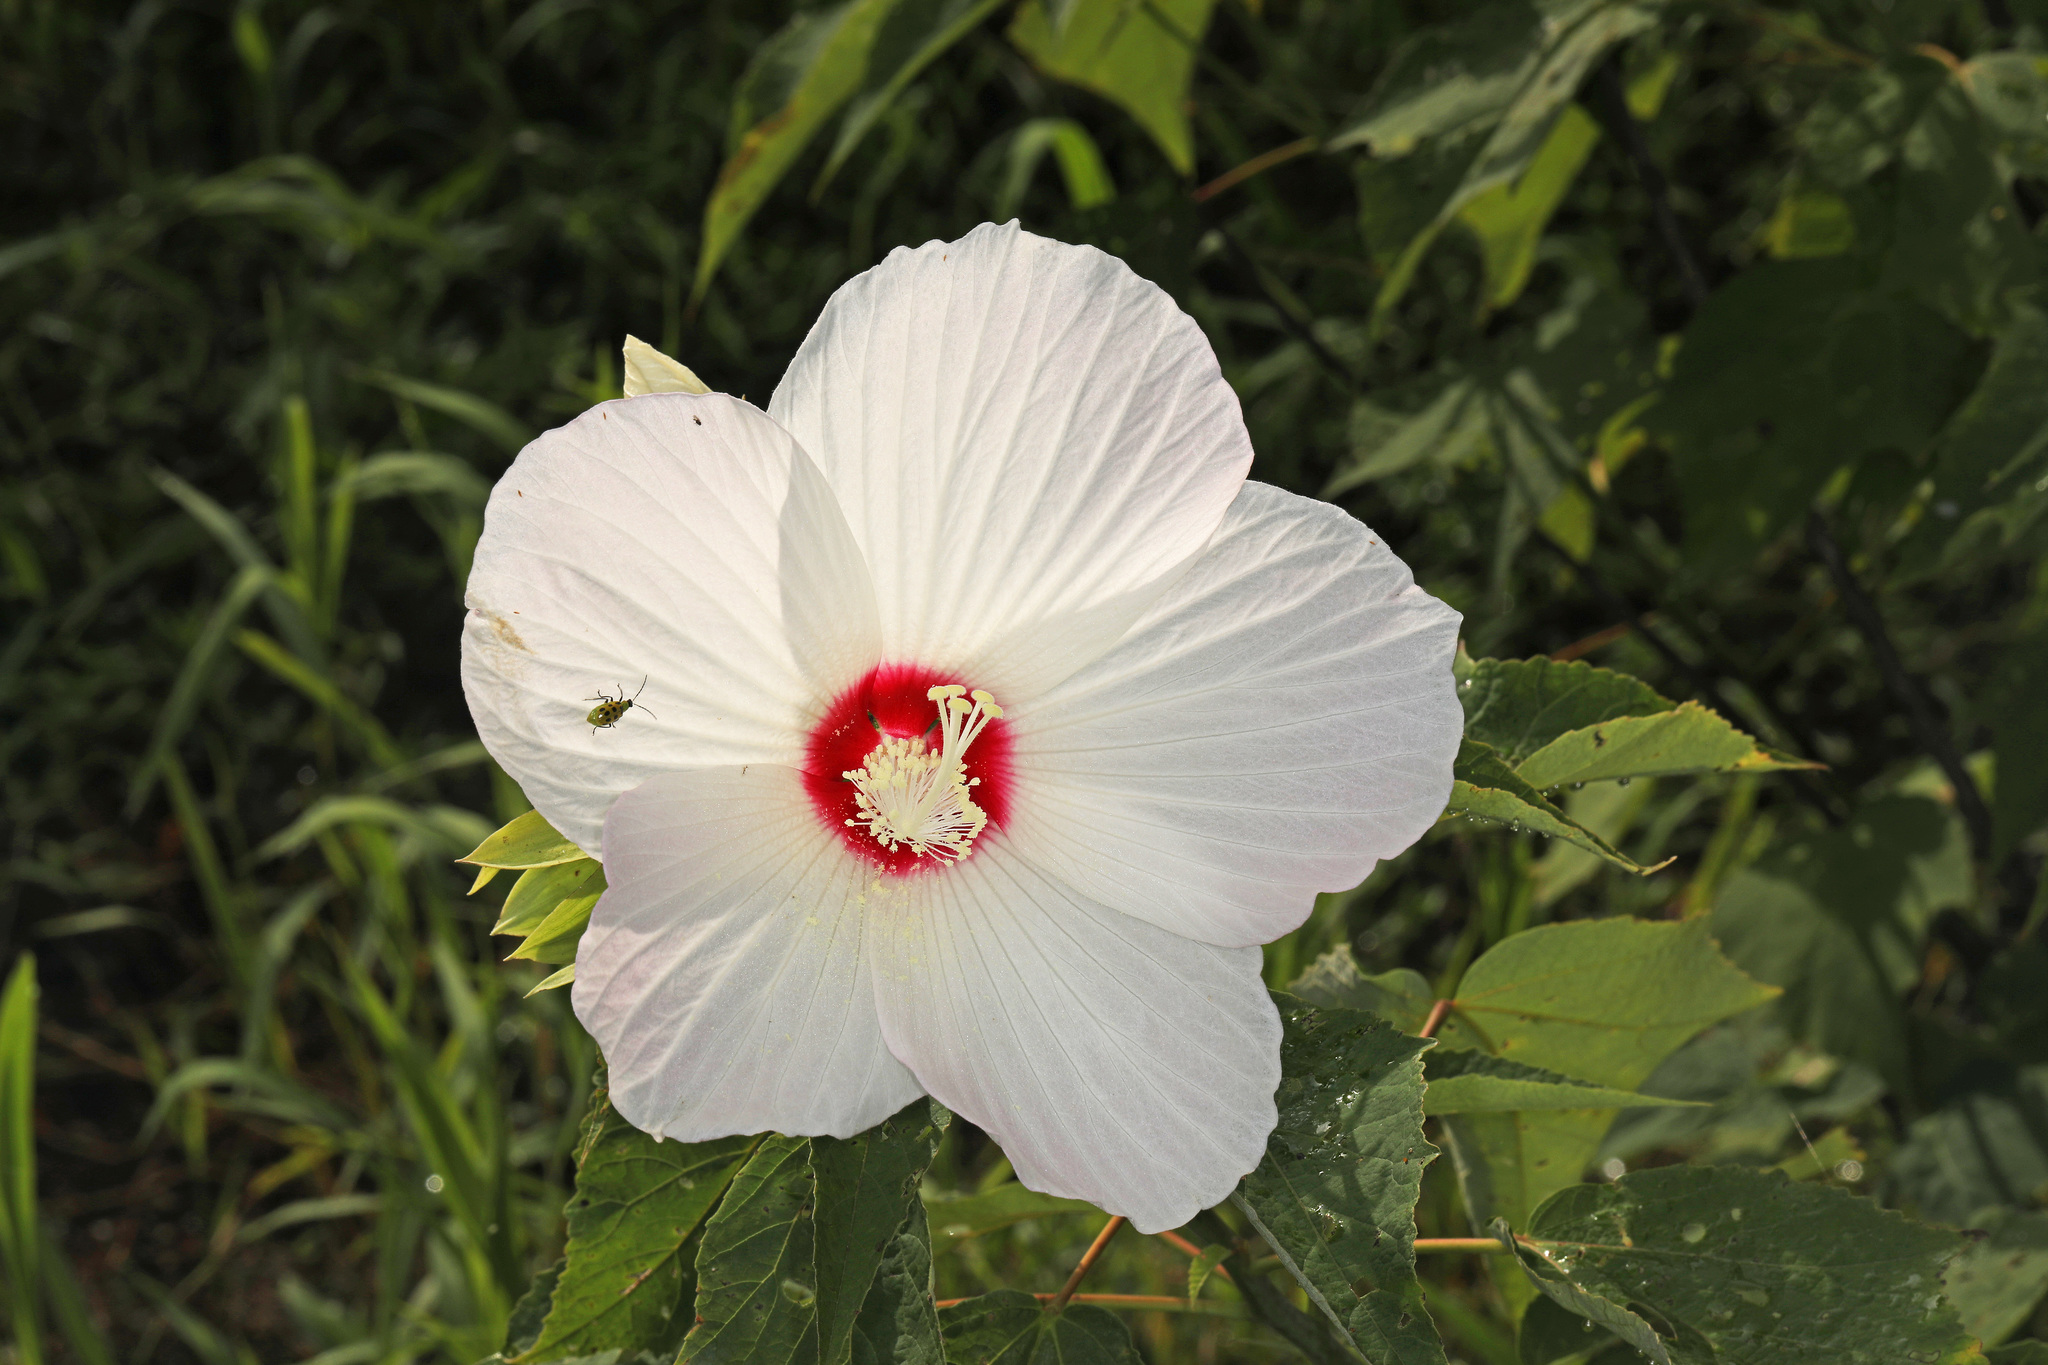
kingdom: Plantae
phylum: Tracheophyta
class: Magnoliopsida
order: Malvales
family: Malvaceae
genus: Hibiscus
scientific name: Hibiscus moscheutos
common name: Common rose-mallow
